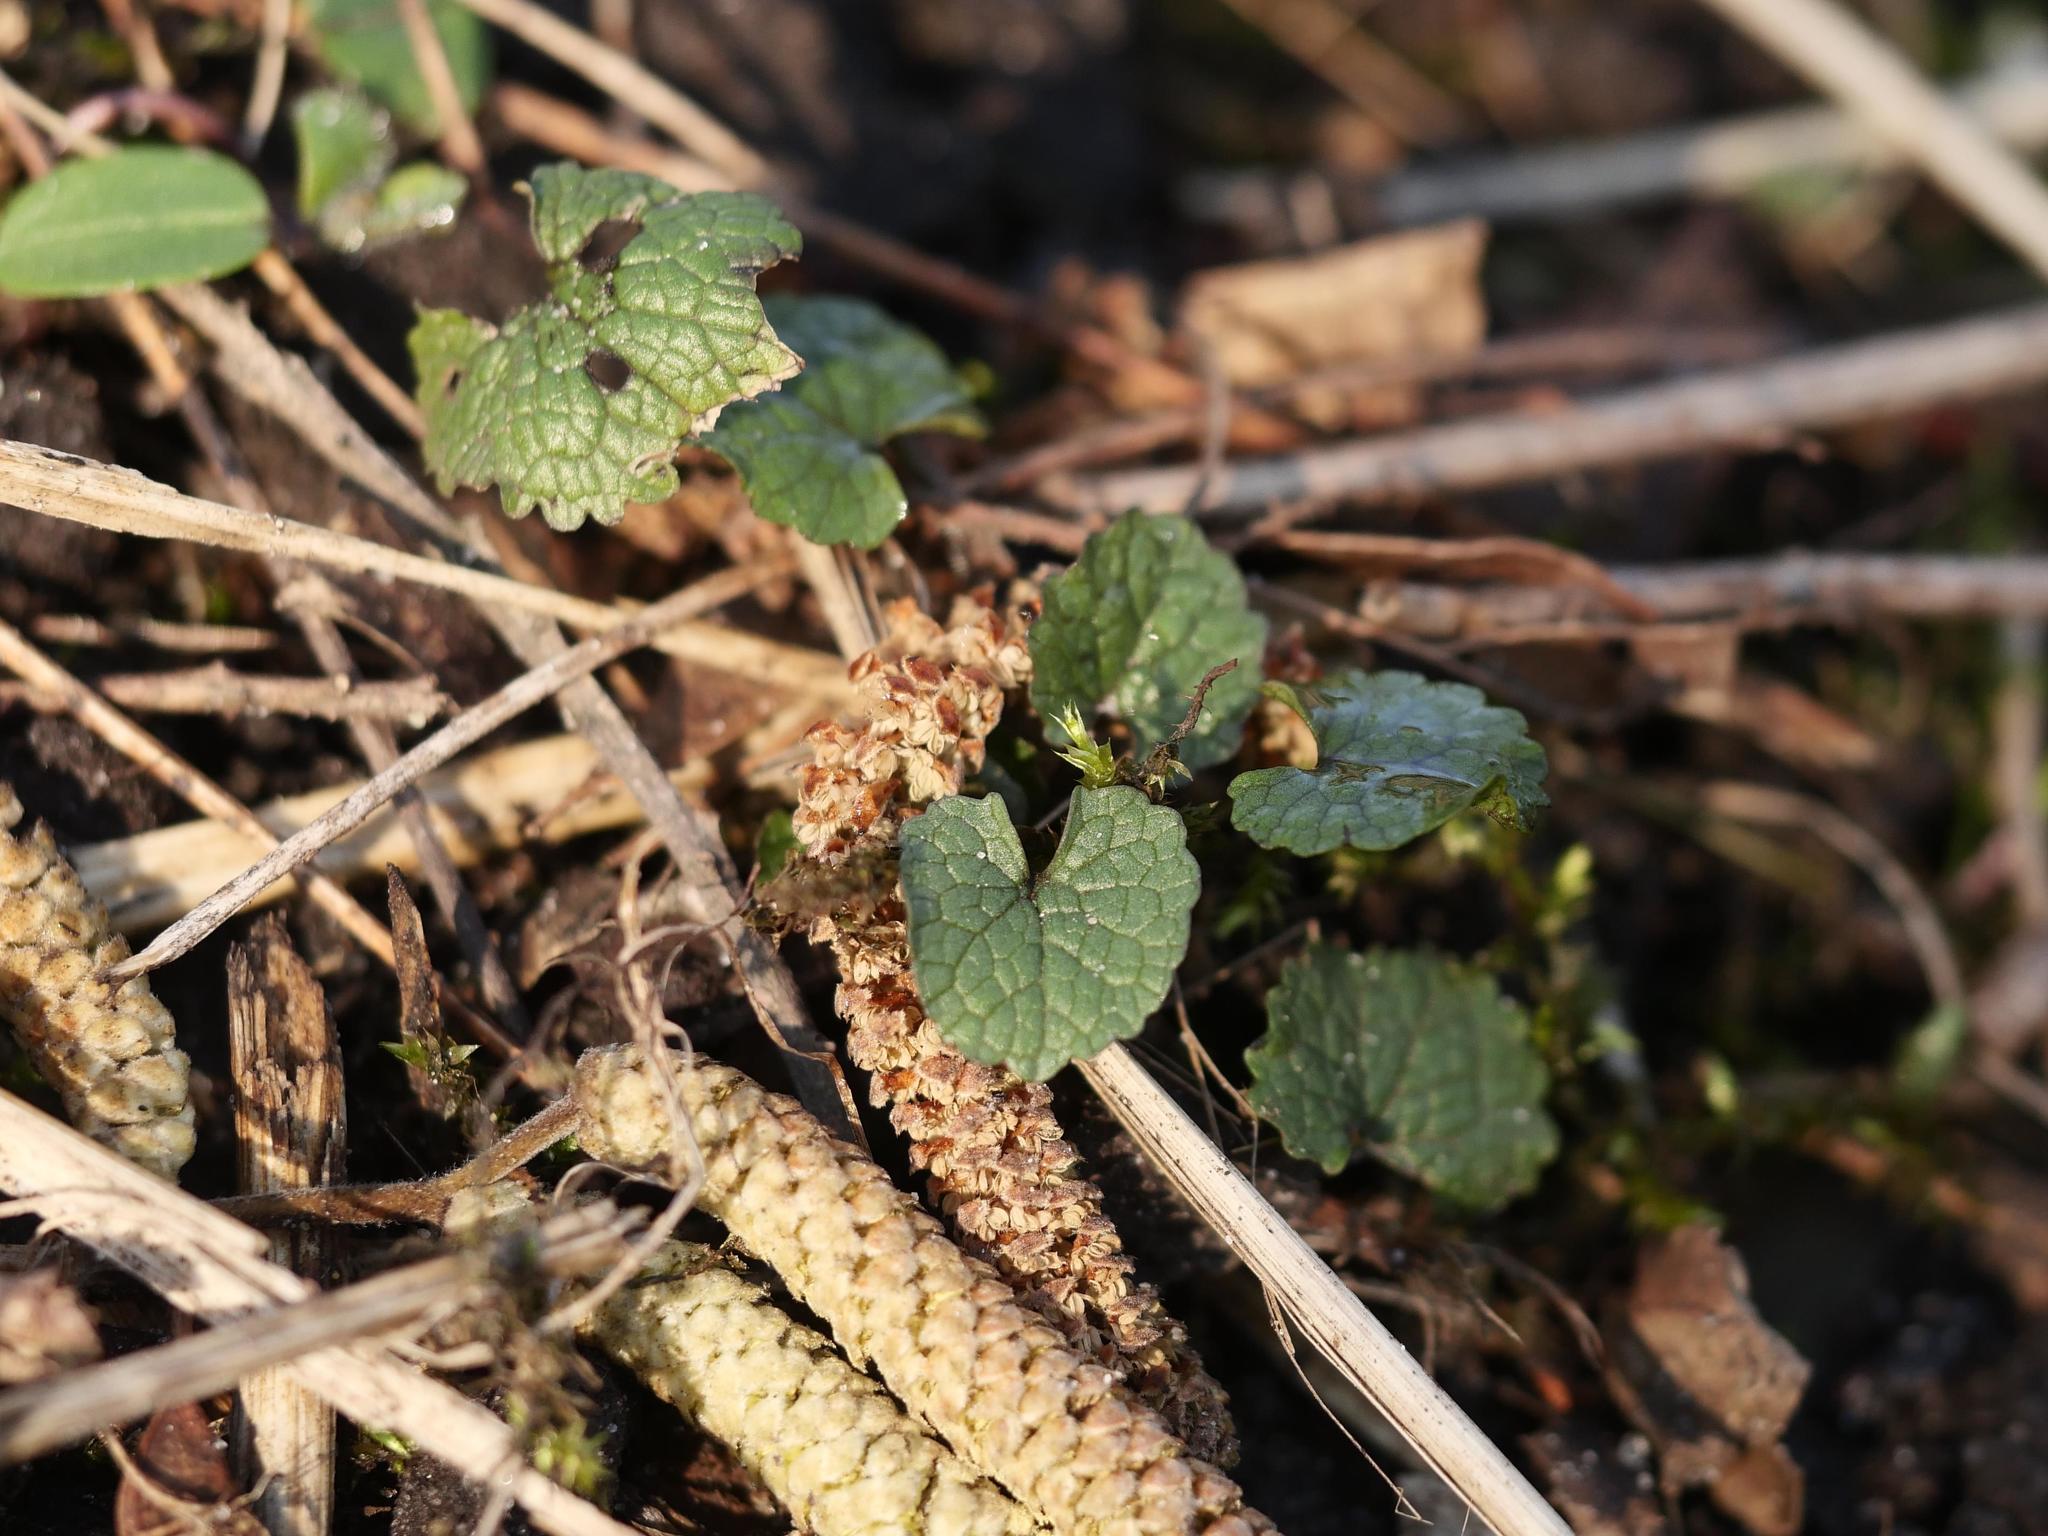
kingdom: Plantae
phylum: Tracheophyta
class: Magnoliopsida
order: Brassicales
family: Brassicaceae
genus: Alliaria
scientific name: Alliaria petiolata
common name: Garlic mustard
